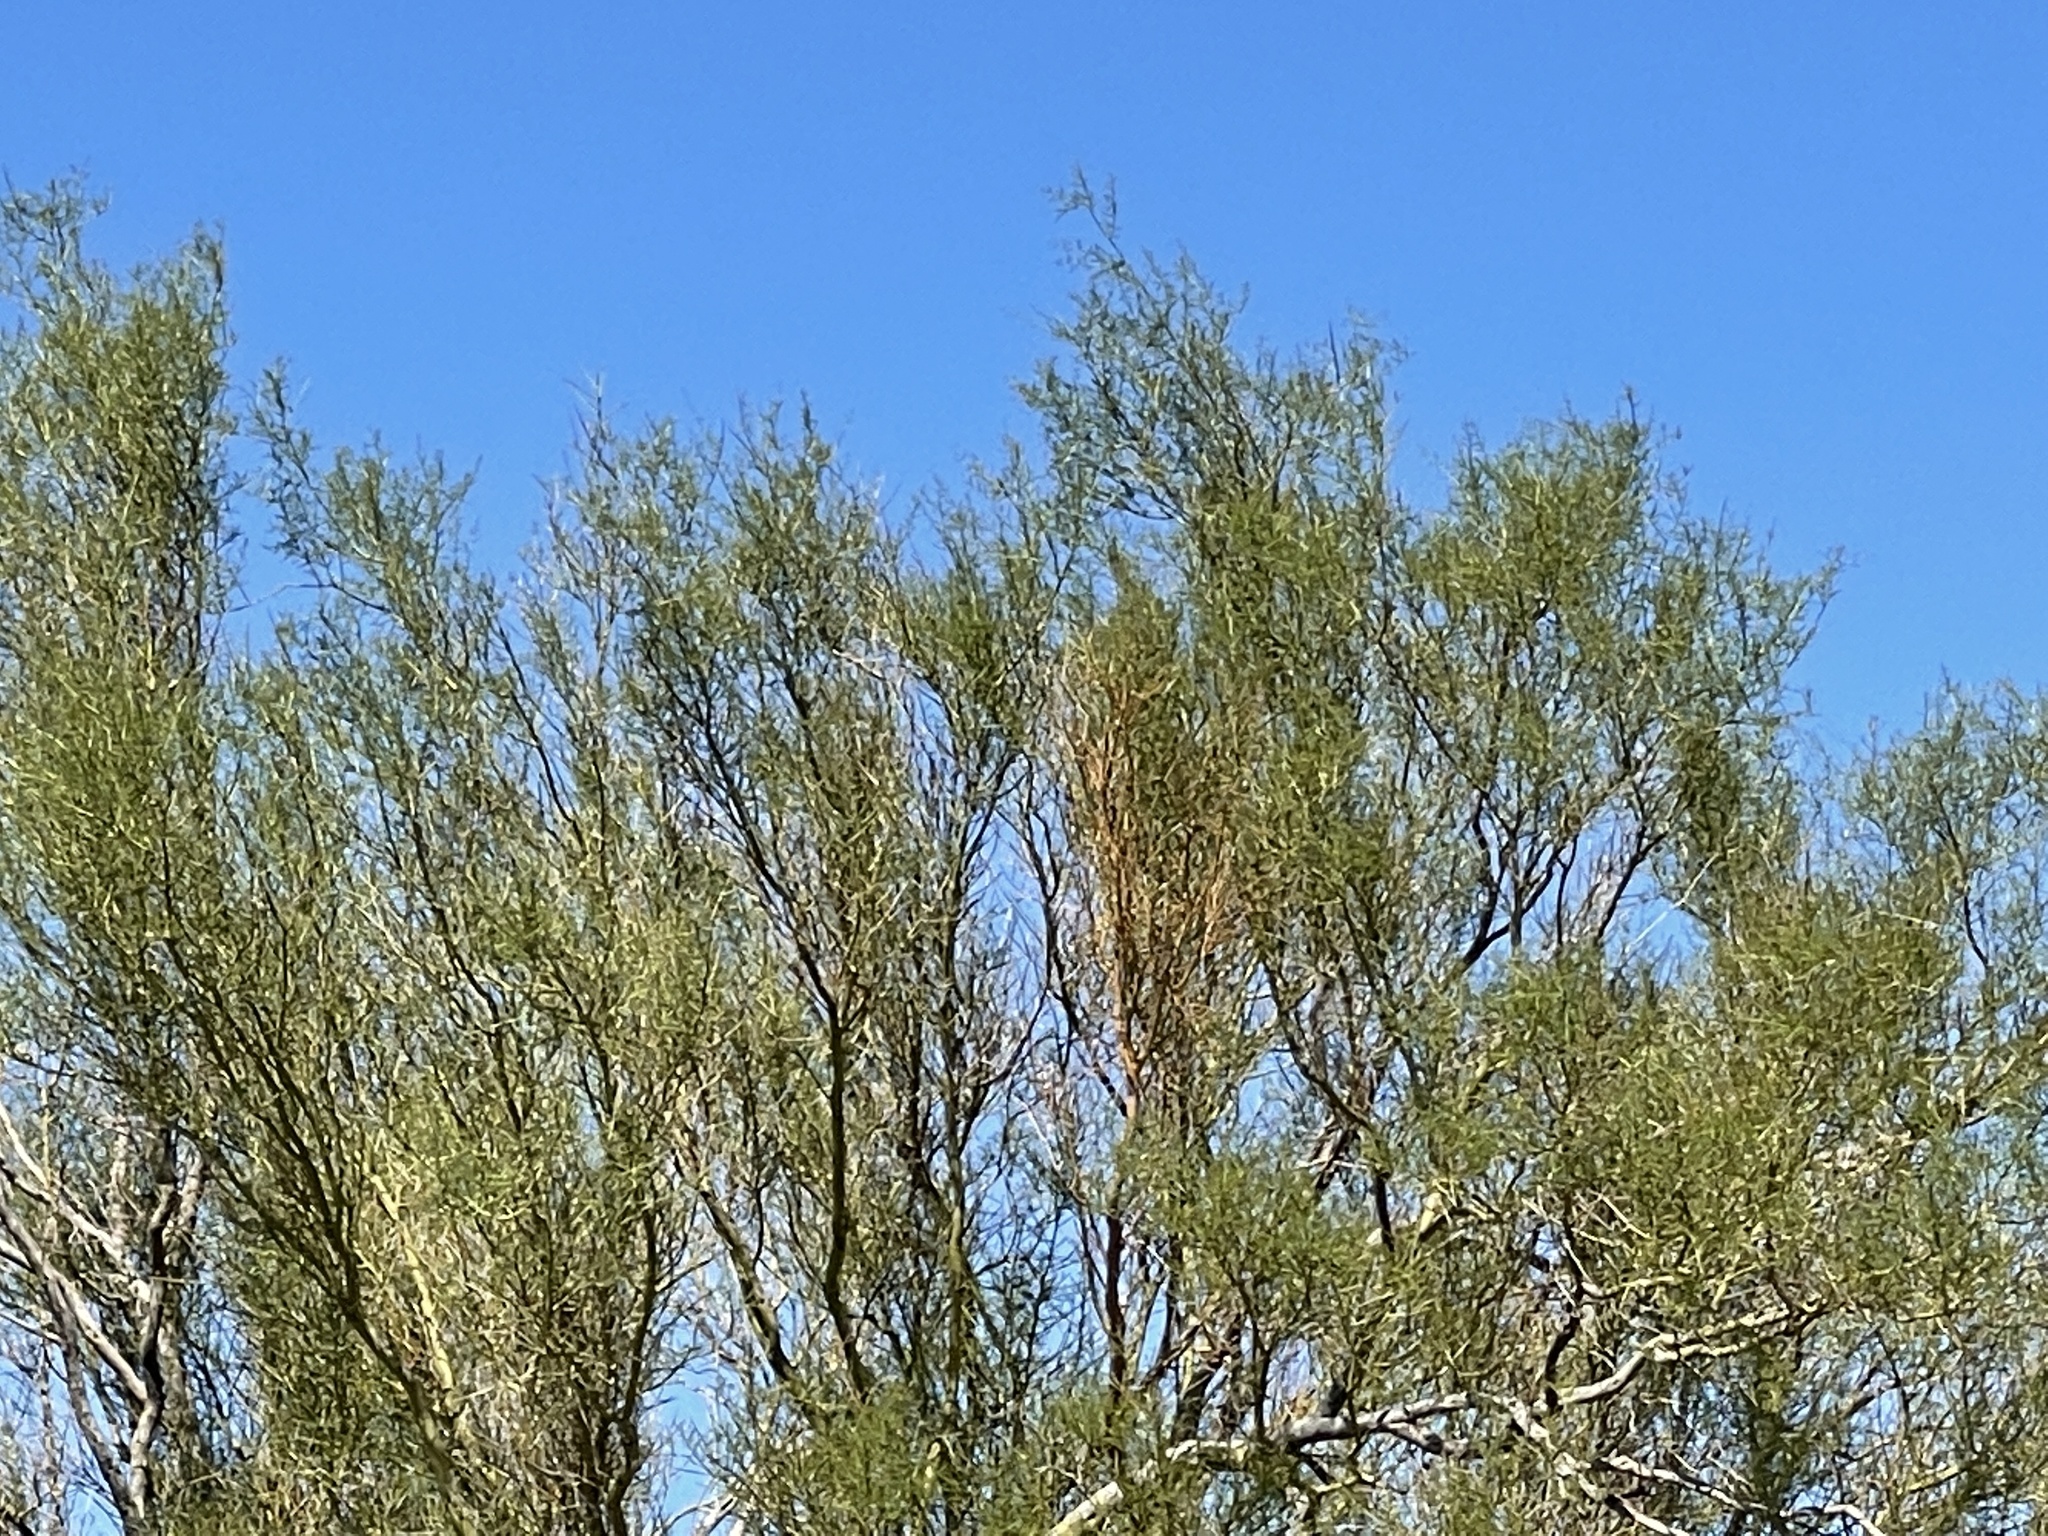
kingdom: Plantae
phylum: Tracheophyta
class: Magnoliopsida
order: Fabales
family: Fabaceae
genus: Parkinsonia
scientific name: Parkinsonia microphylla
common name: Yellow paloverde
